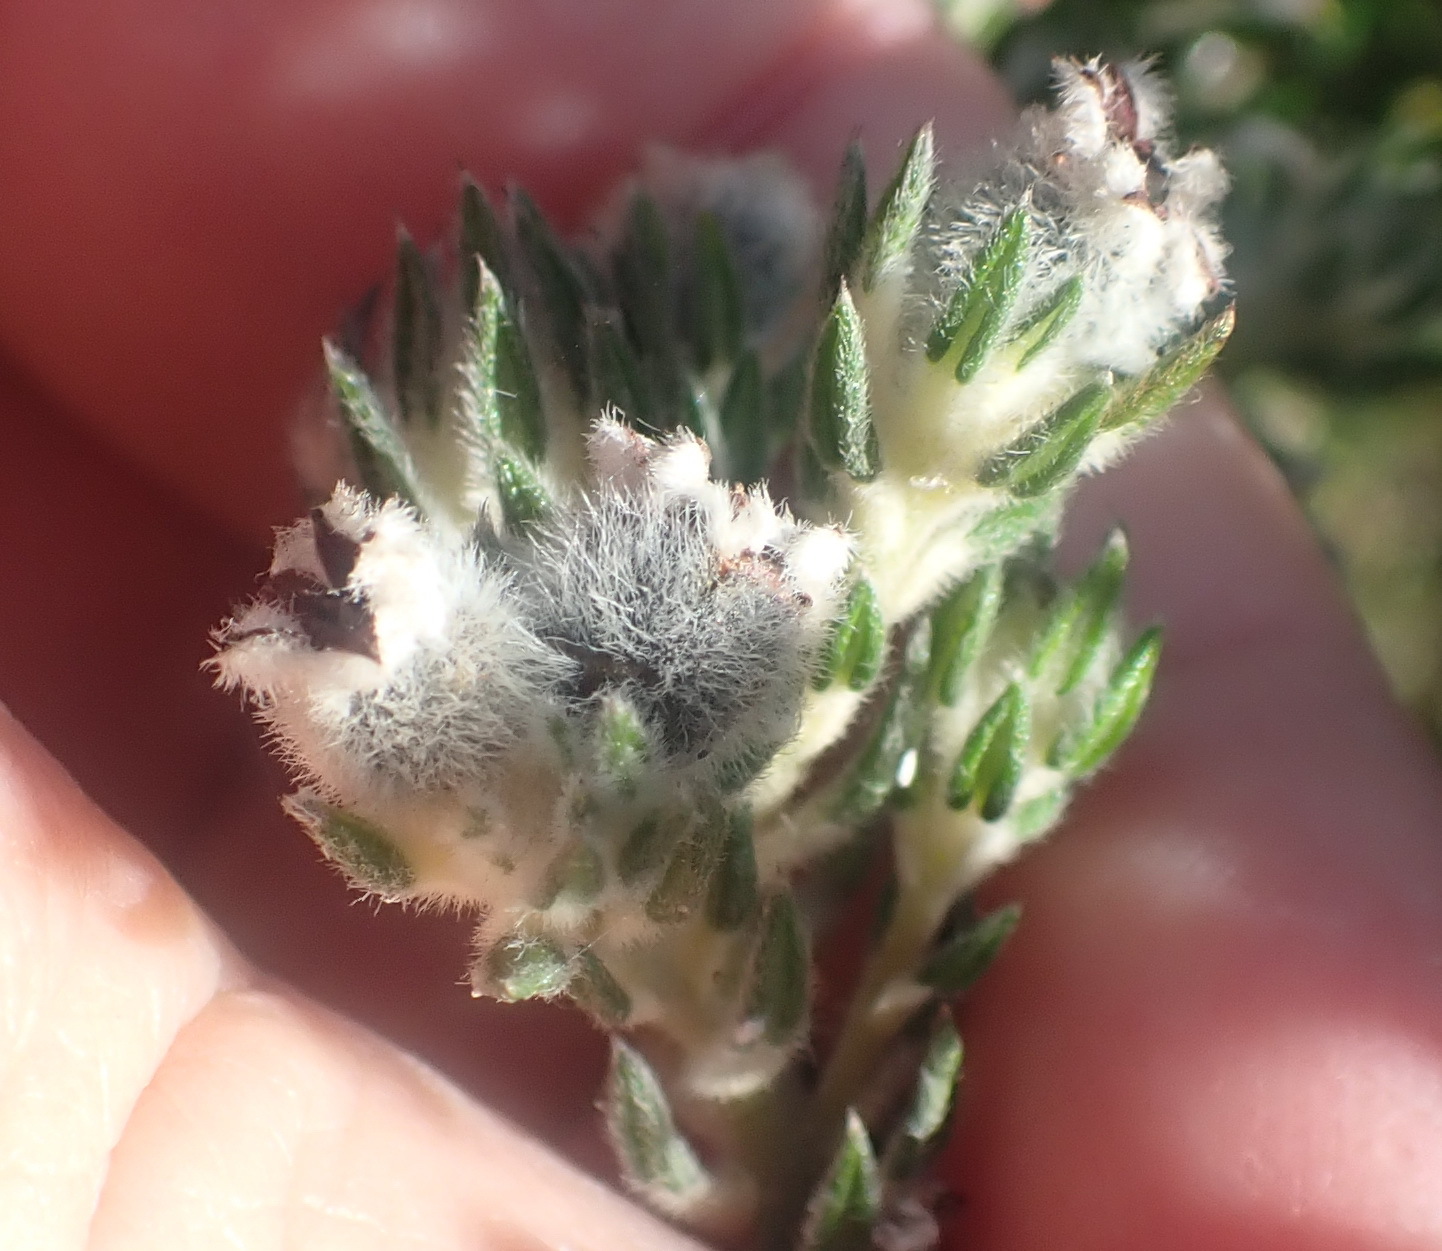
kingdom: Plantae
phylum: Tracheophyta
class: Magnoliopsida
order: Rosales
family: Rhamnaceae
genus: Phylica
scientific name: Phylica purpurea
